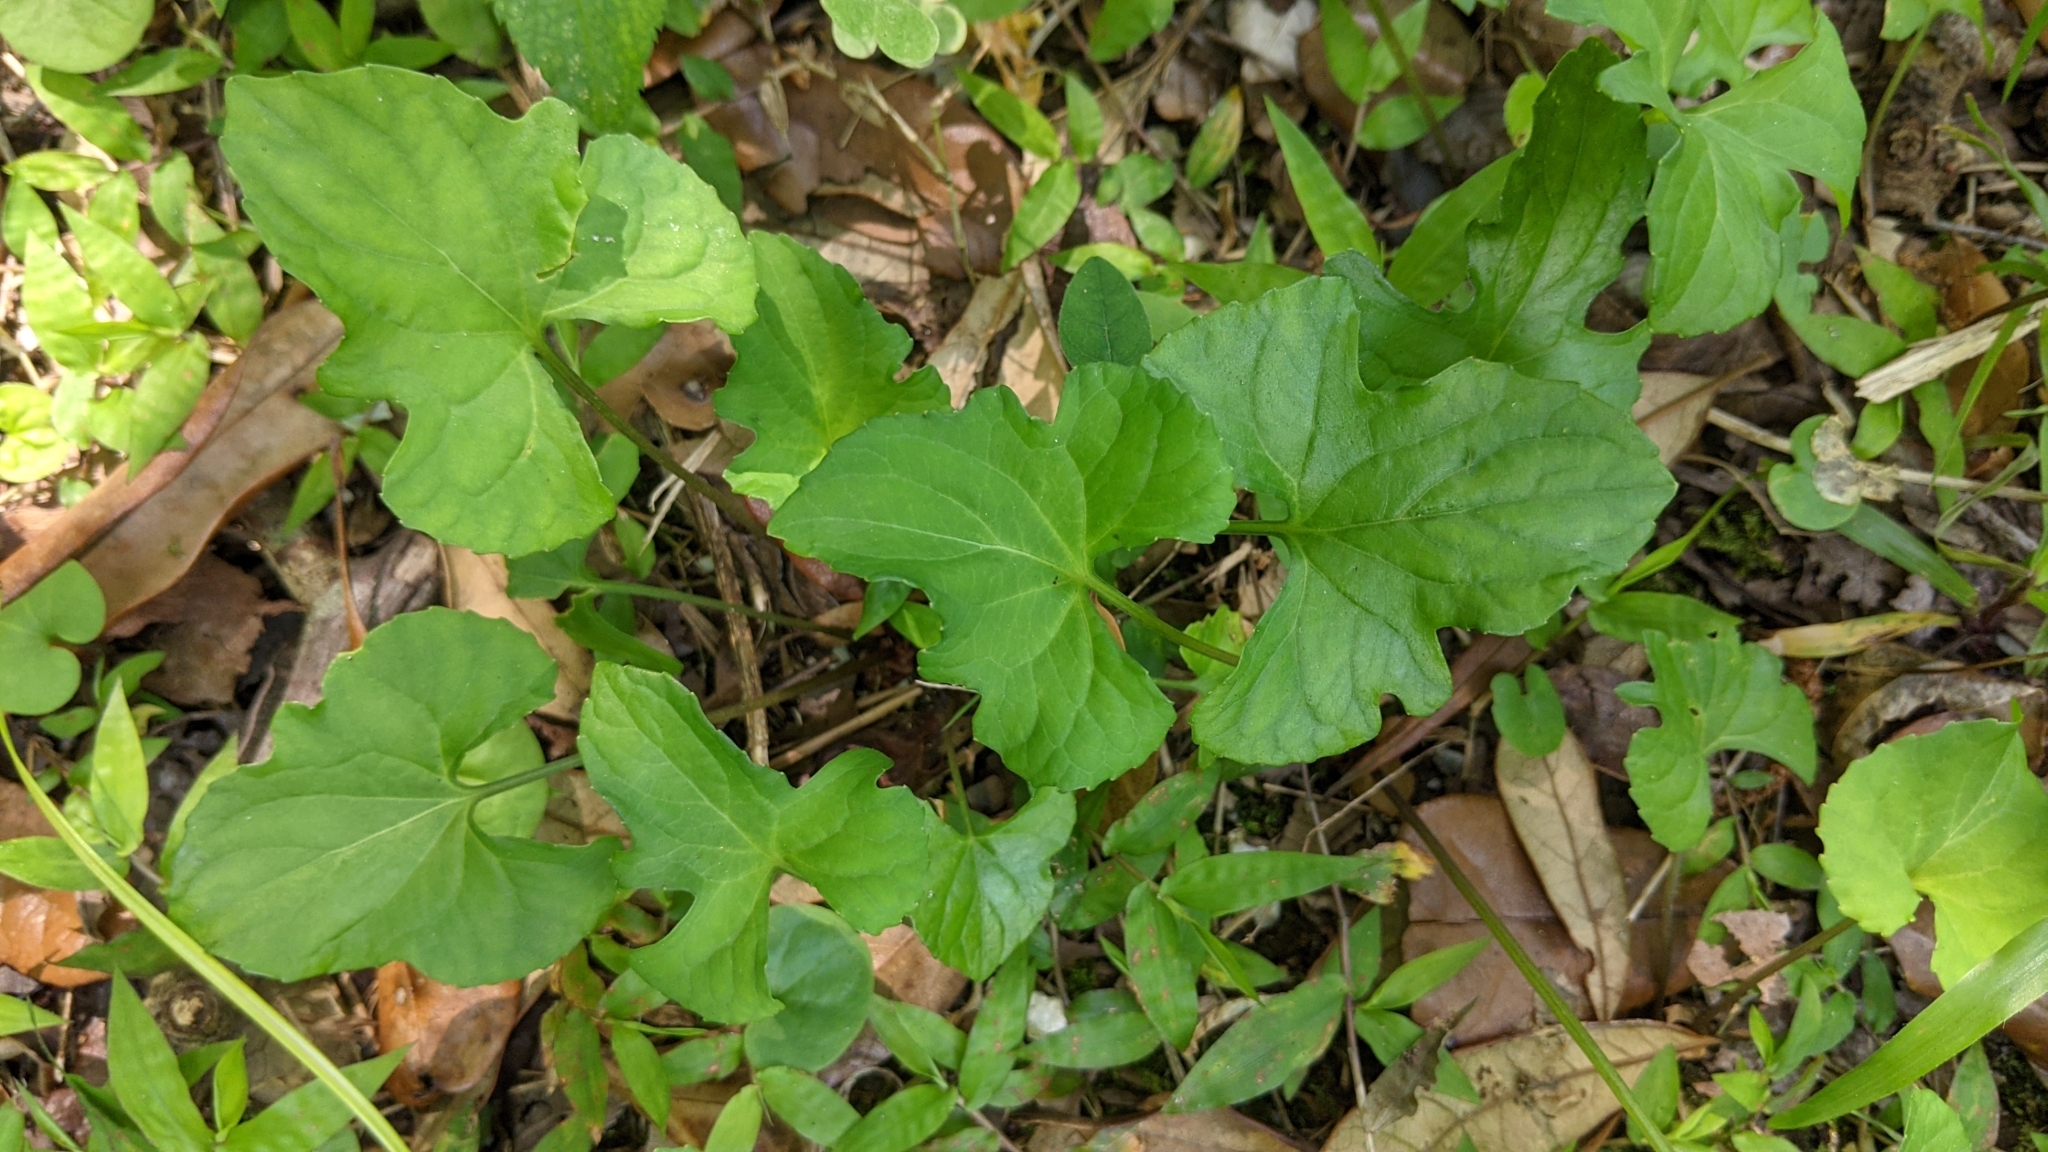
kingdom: Plantae
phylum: Tracheophyta
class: Magnoliopsida
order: Malpighiales
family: Violaceae
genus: Viola
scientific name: Viola palmata
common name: Early blue violet
